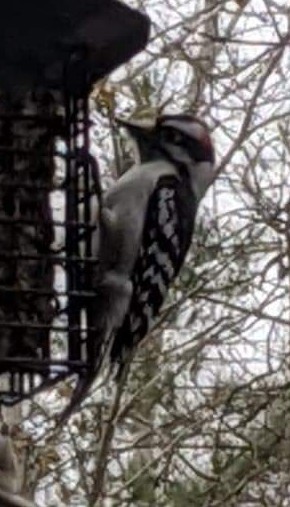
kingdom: Animalia
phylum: Chordata
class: Aves
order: Piciformes
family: Picidae
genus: Dryobates
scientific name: Dryobates pubescens
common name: Downy woodpecker
